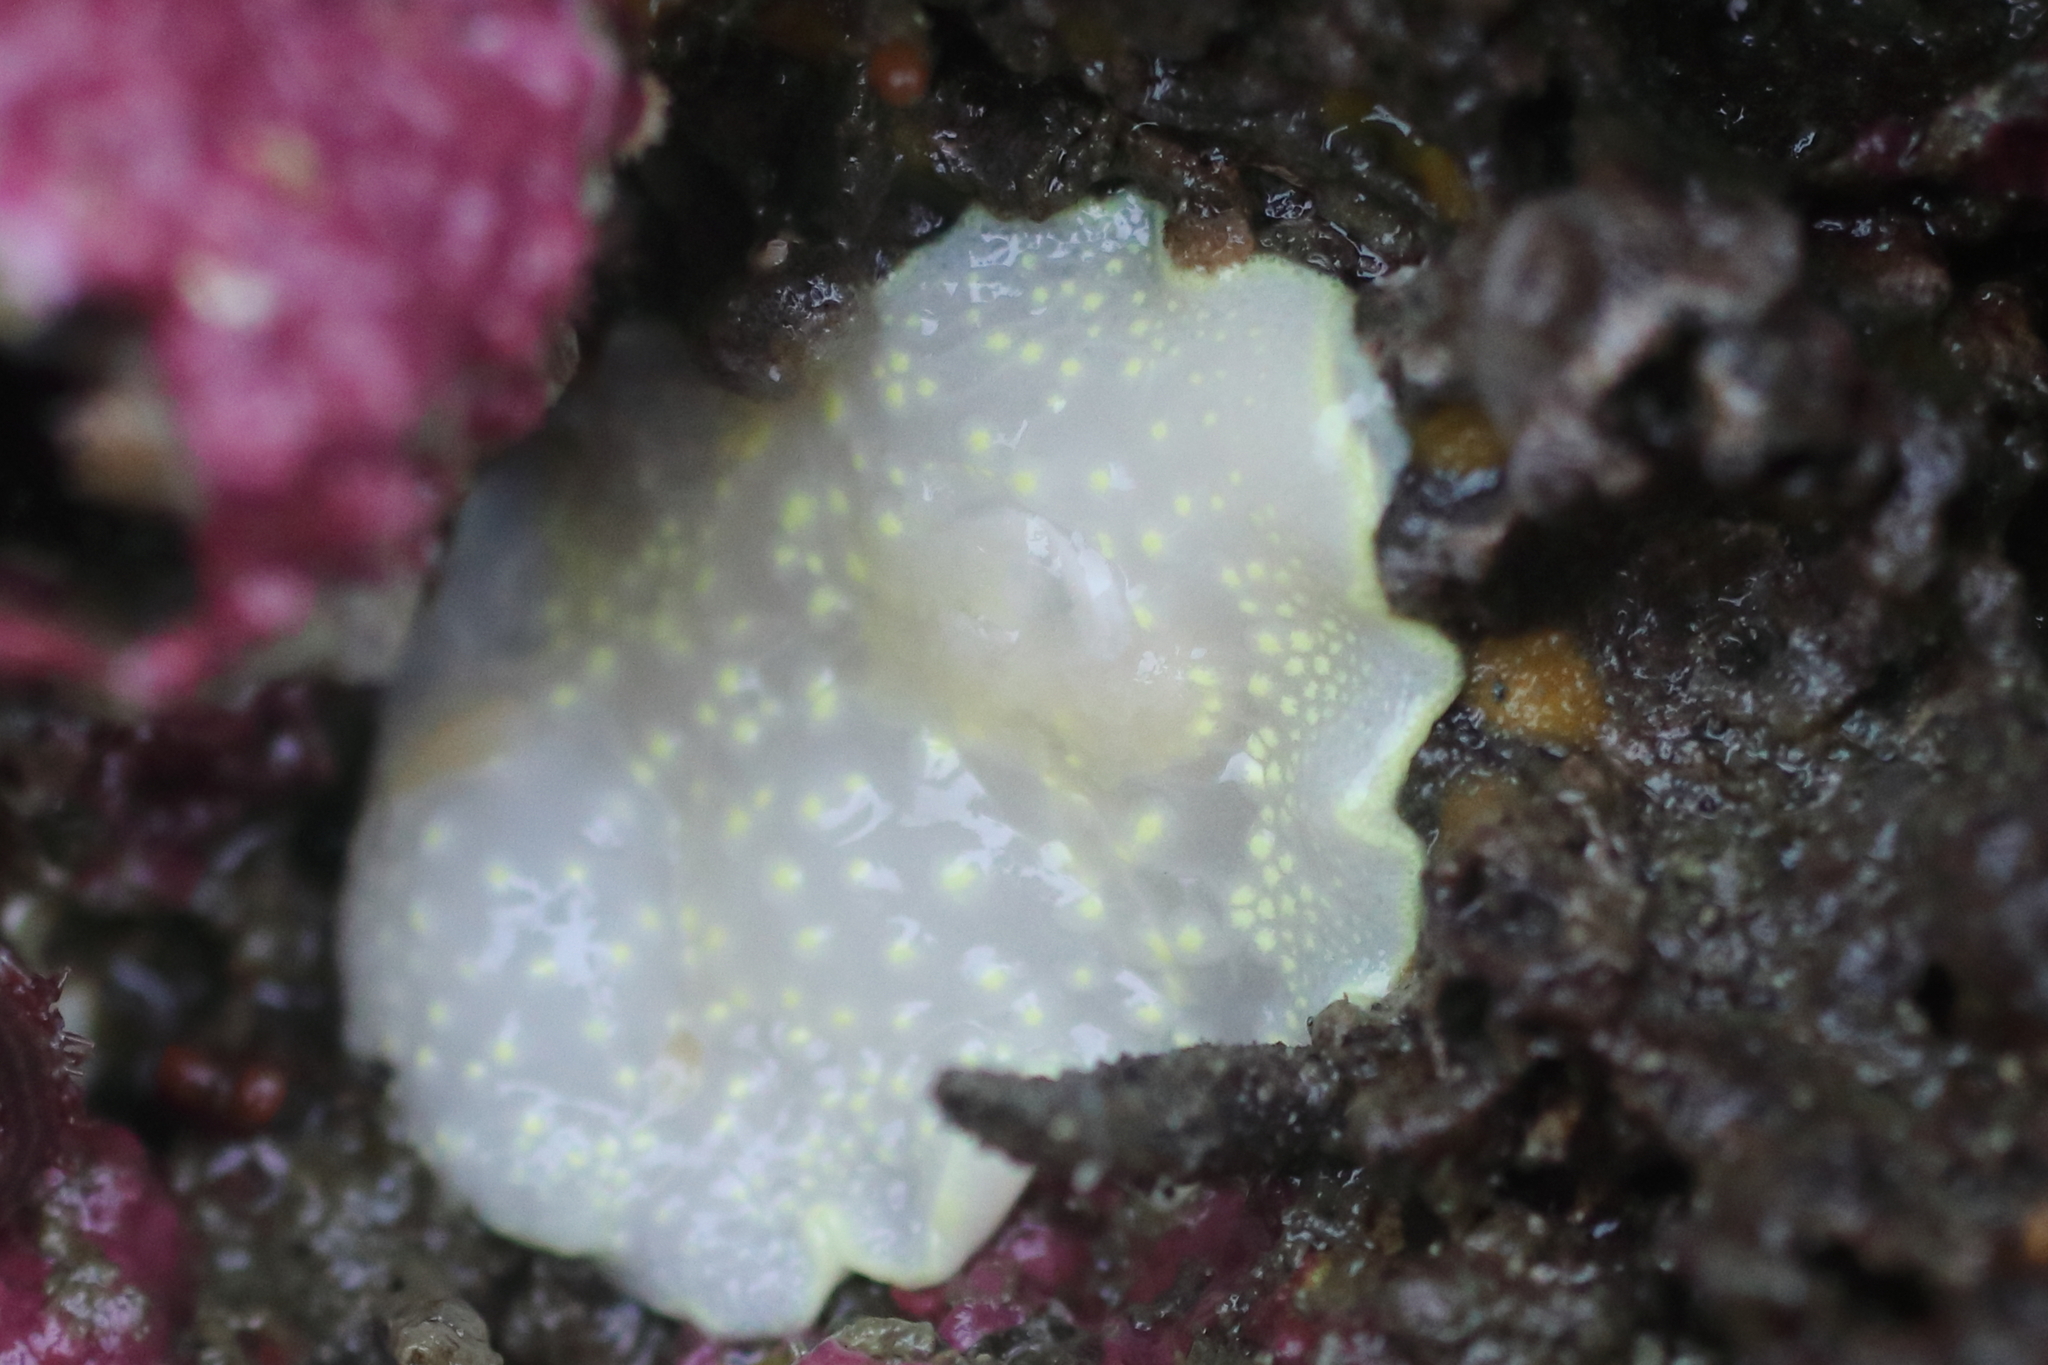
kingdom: Animalia
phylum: Mollusca
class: Gastropoda
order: Nudibranchia
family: Cadlinidae
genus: Cadlina
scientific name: Cadlina luteomarginata
